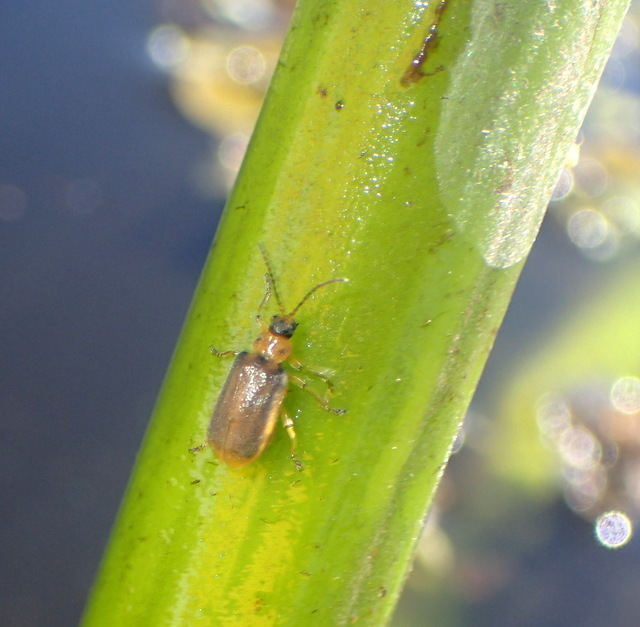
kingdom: Animalia
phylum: Arthropoda
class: Insecta
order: Coleoptera
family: Chrysomelidae
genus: Galerucella
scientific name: Galerucella nymphaeae
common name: Leaf beetle
